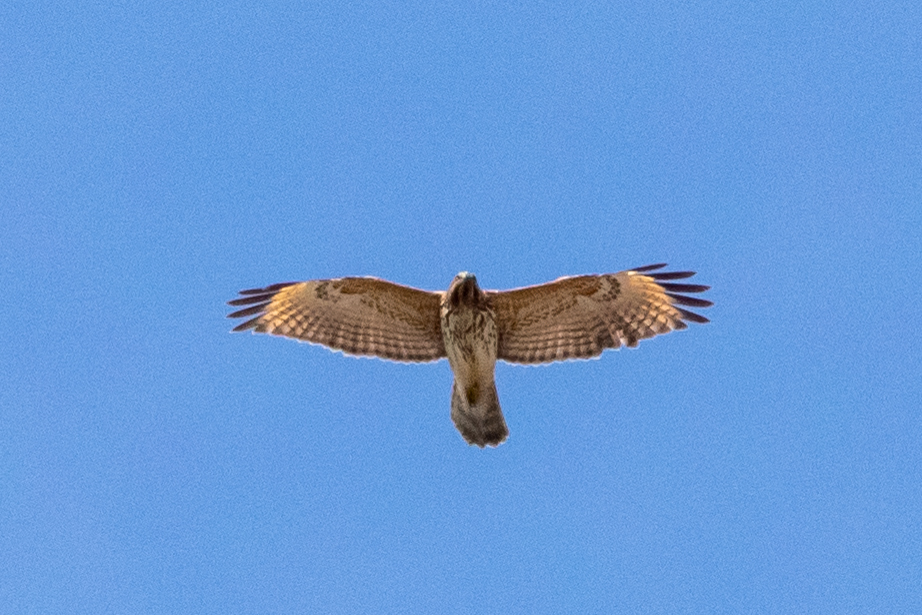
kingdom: Animalia
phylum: Chordata
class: Aves
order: Accipitriformes
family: Accipitridae
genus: Buteo
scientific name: Buteo lineatus
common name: Red-shouldered hawk
